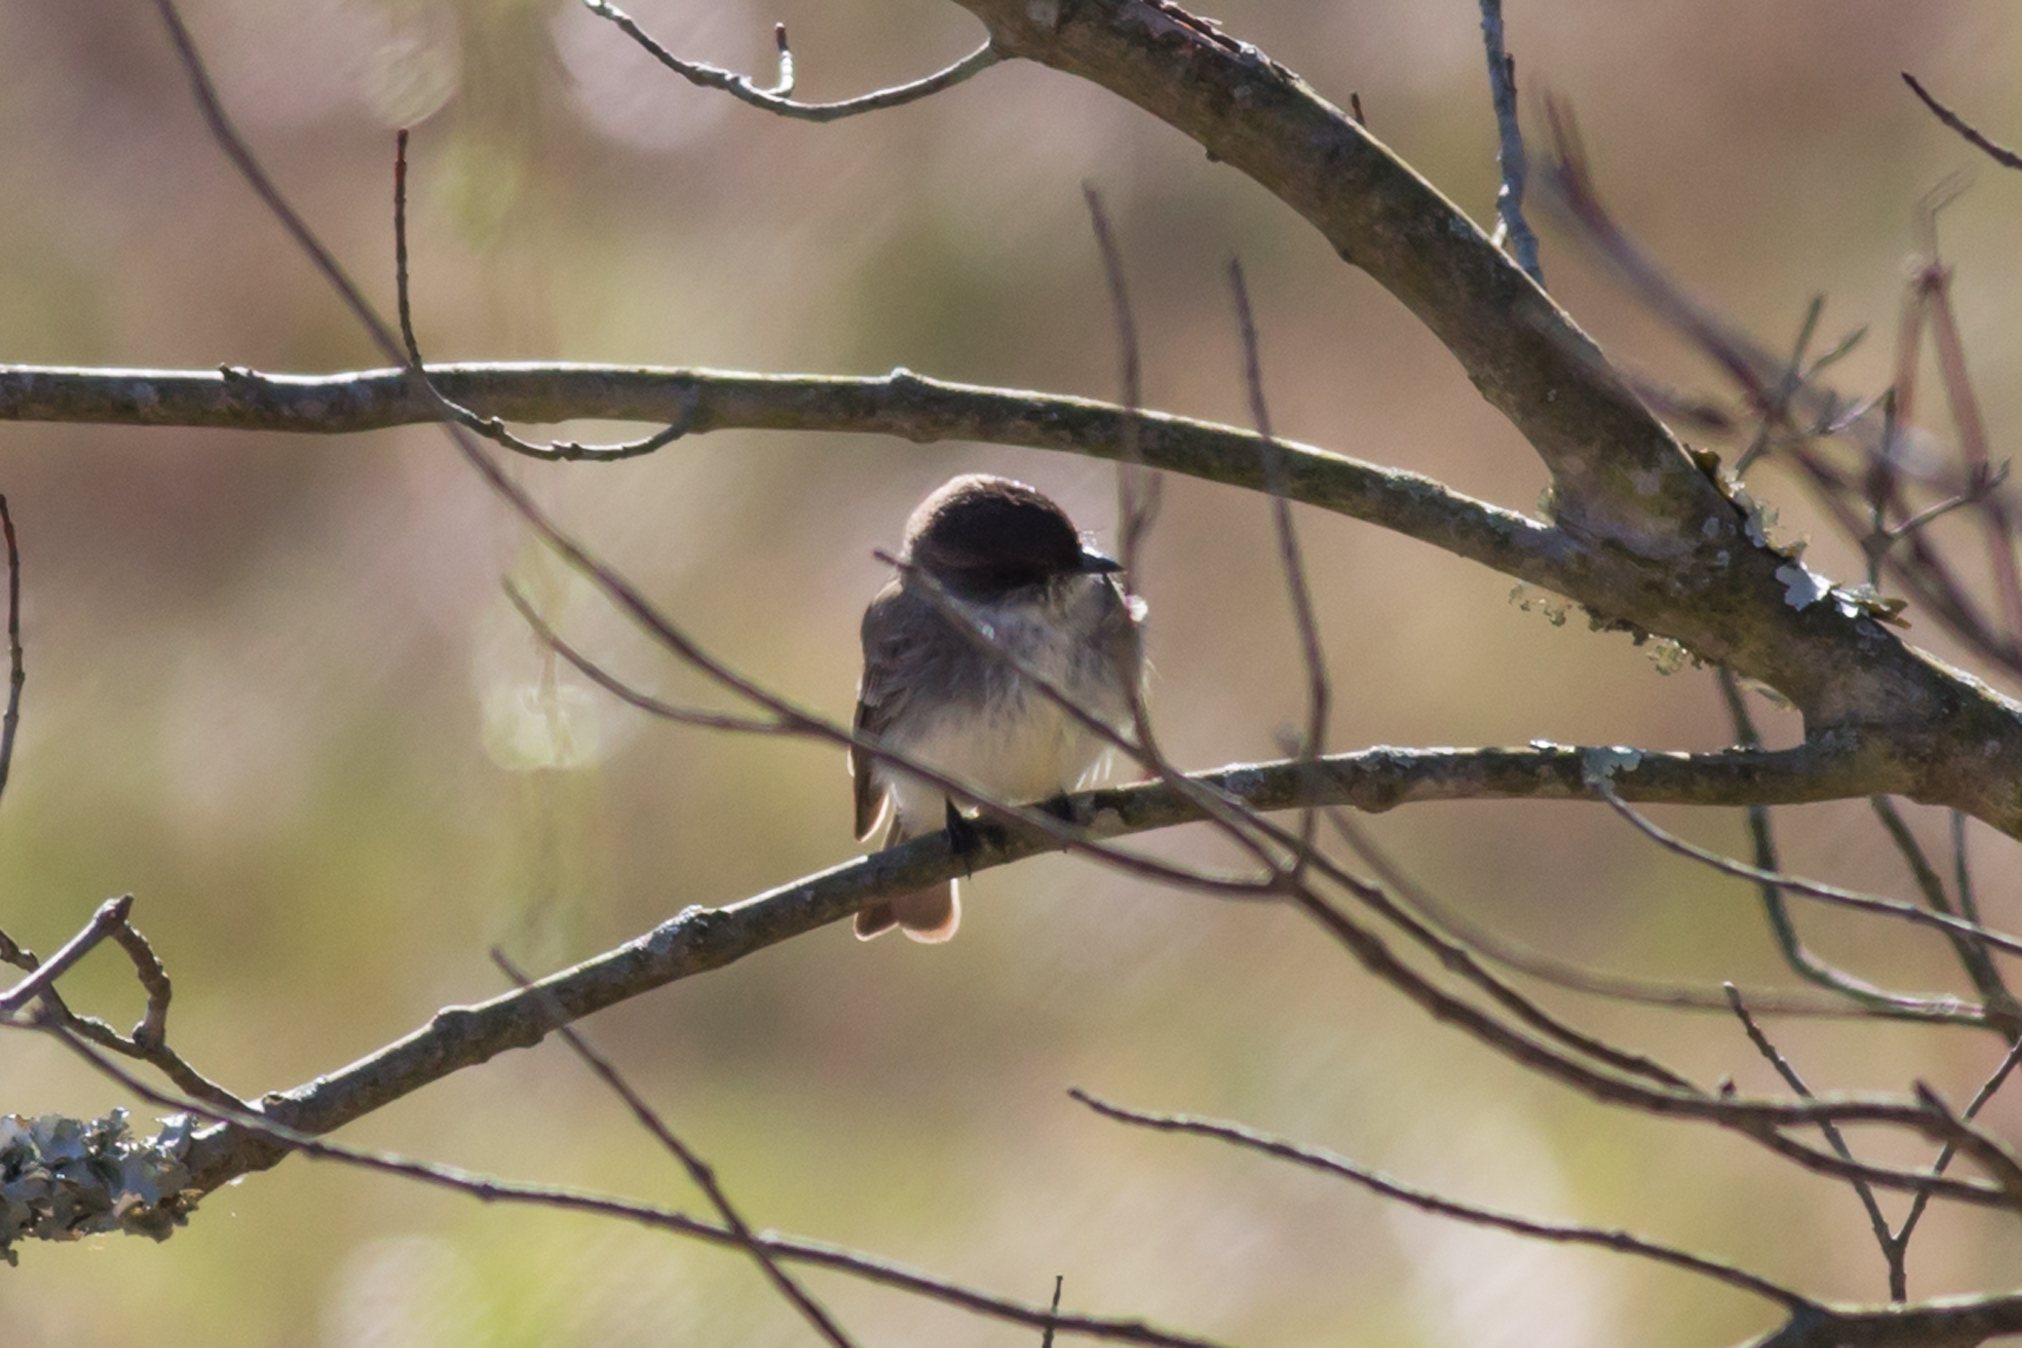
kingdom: Animalia
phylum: Chordata
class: Aves
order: Passeriformes
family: Tyrannidae
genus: Sayornis
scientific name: Sayornis phoebe
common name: Eastern phoebe
